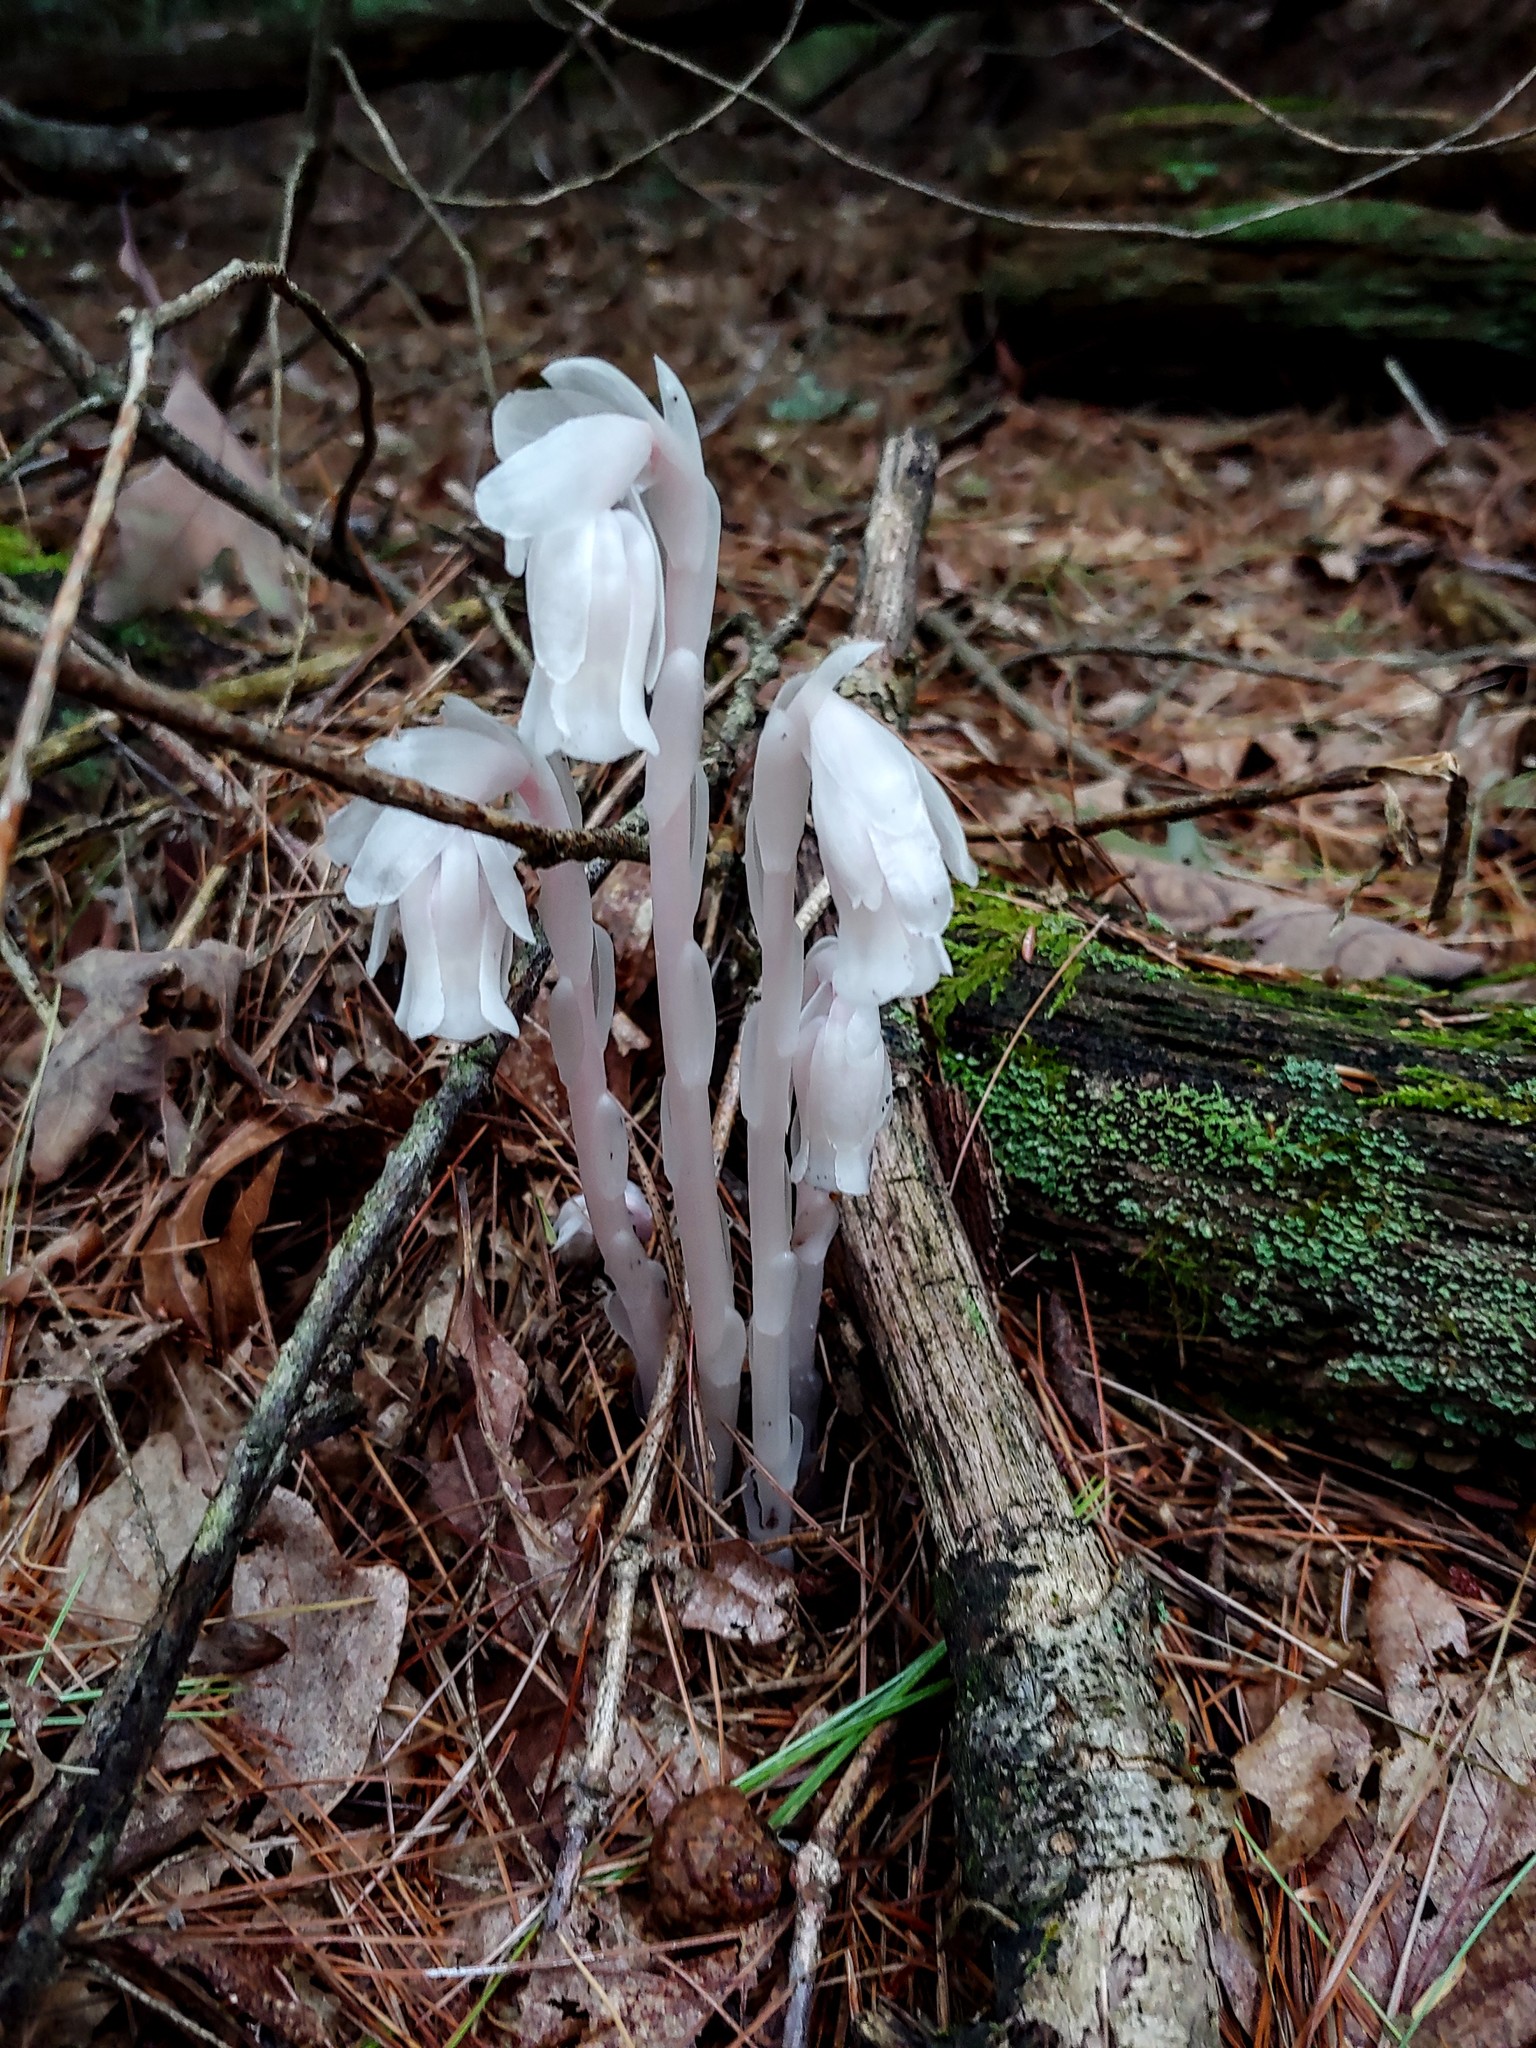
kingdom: Plantae
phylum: Tracheophyta
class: Magnoliopsida
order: Ericales
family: Ericaceae
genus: Monotropa
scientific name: Monotropa uniflora
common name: Convulsion root
